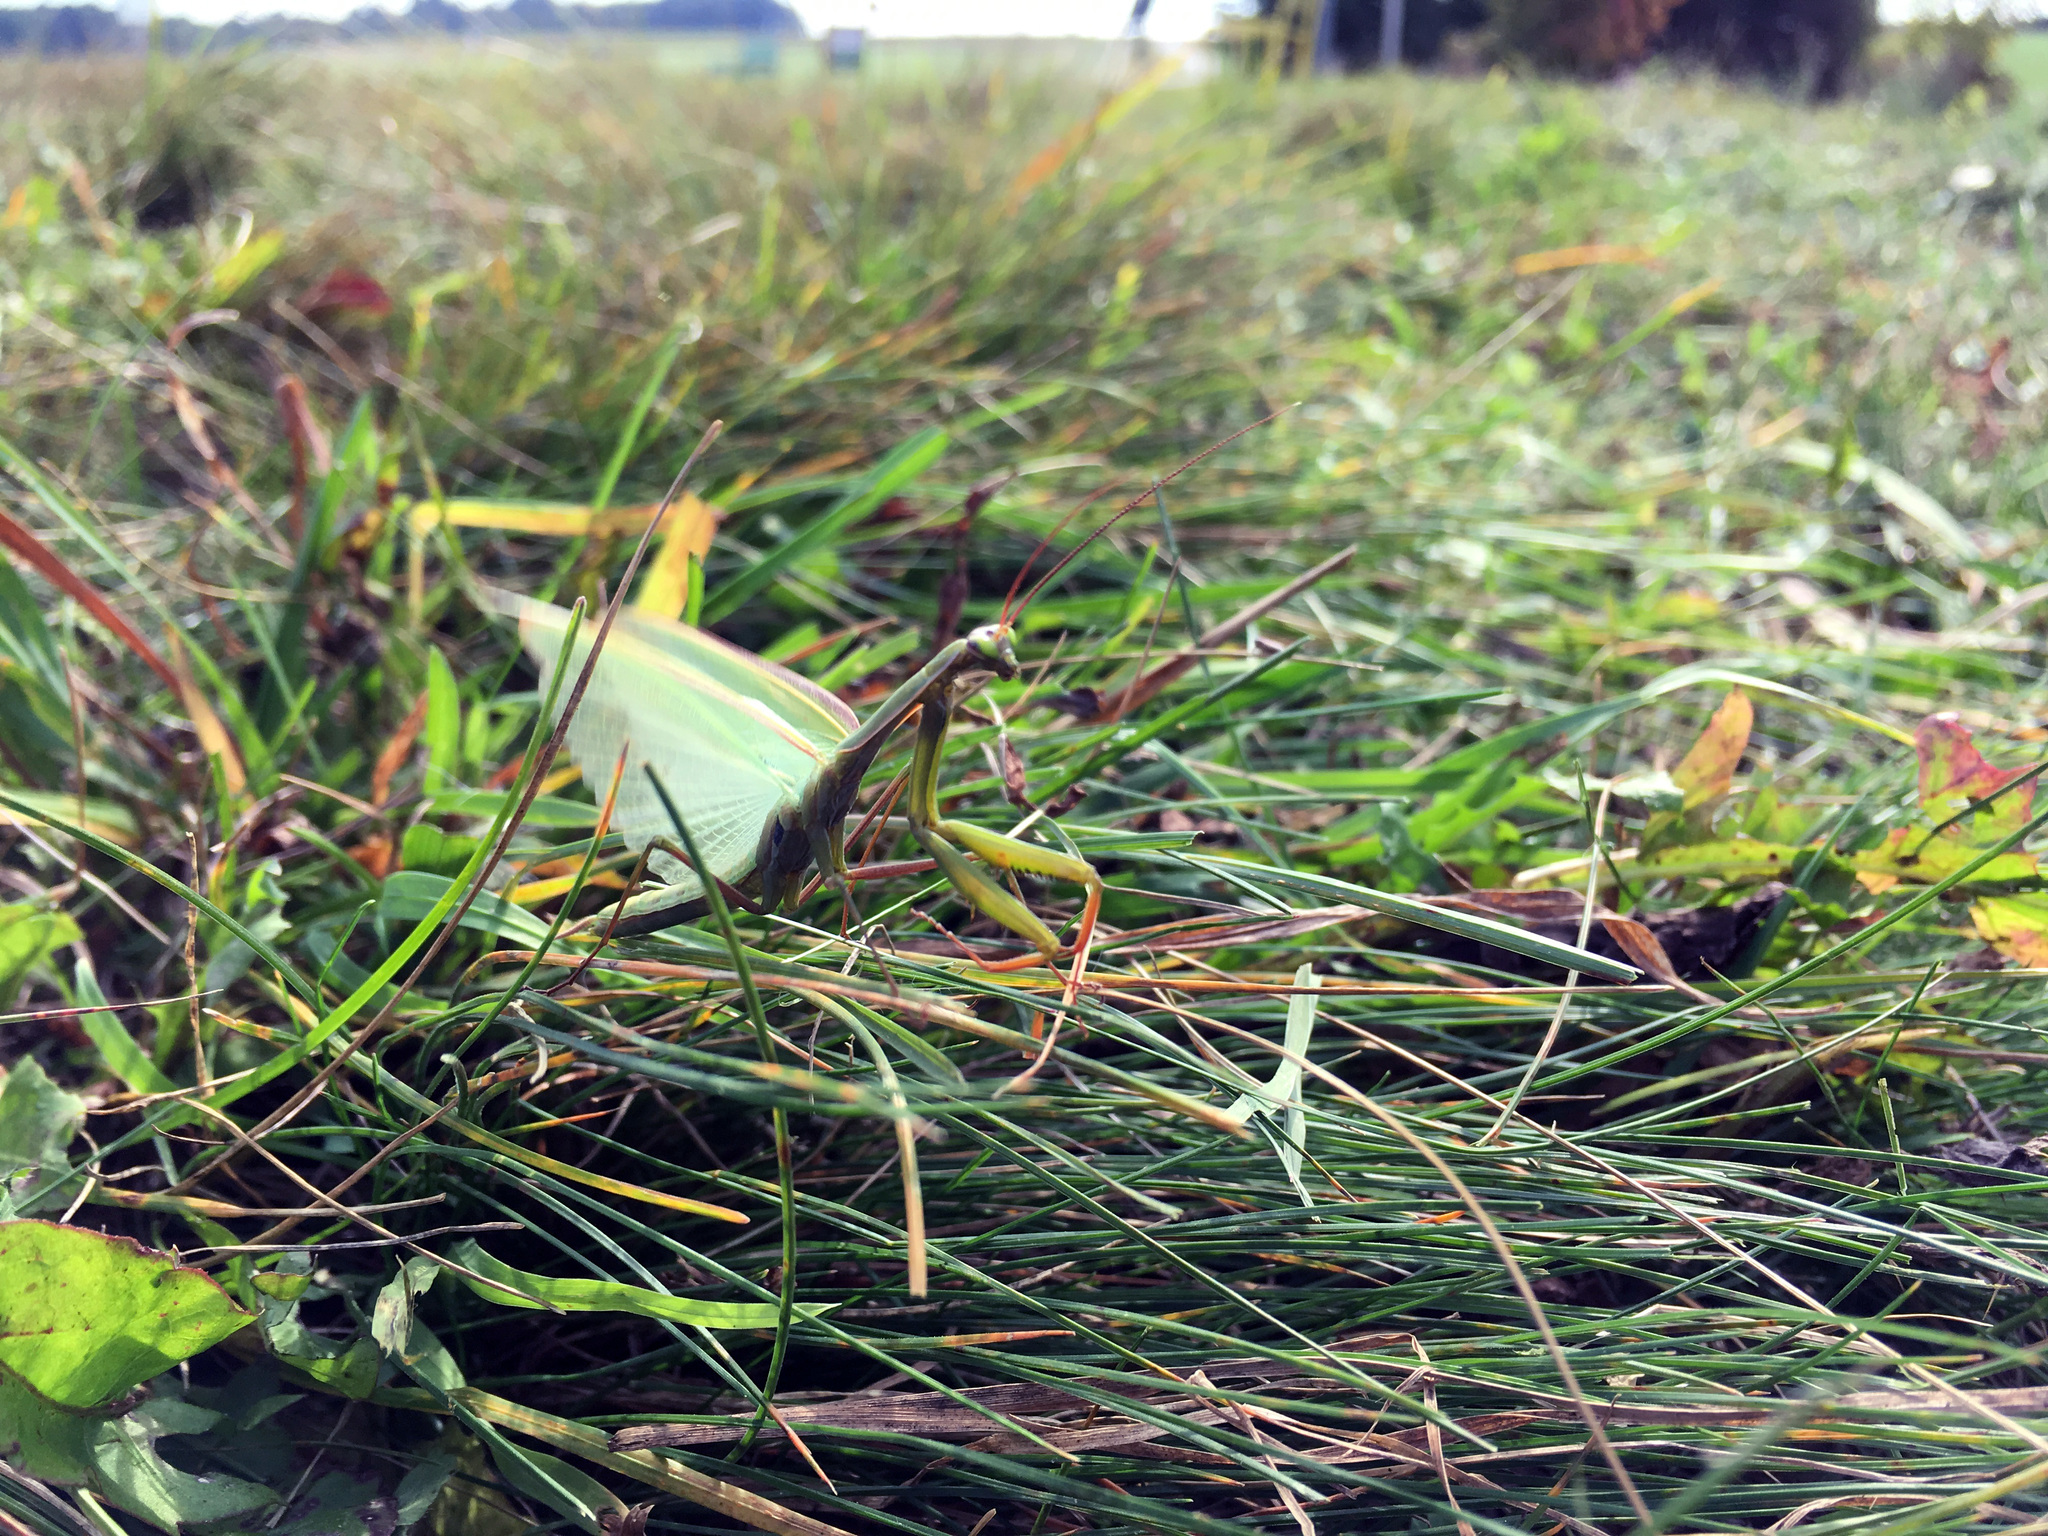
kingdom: Animalia
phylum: Arthropoda
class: Insecta
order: Mantodea
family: Mantidae
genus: Mantis
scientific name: Mantis religiosa
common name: Praying mantis
